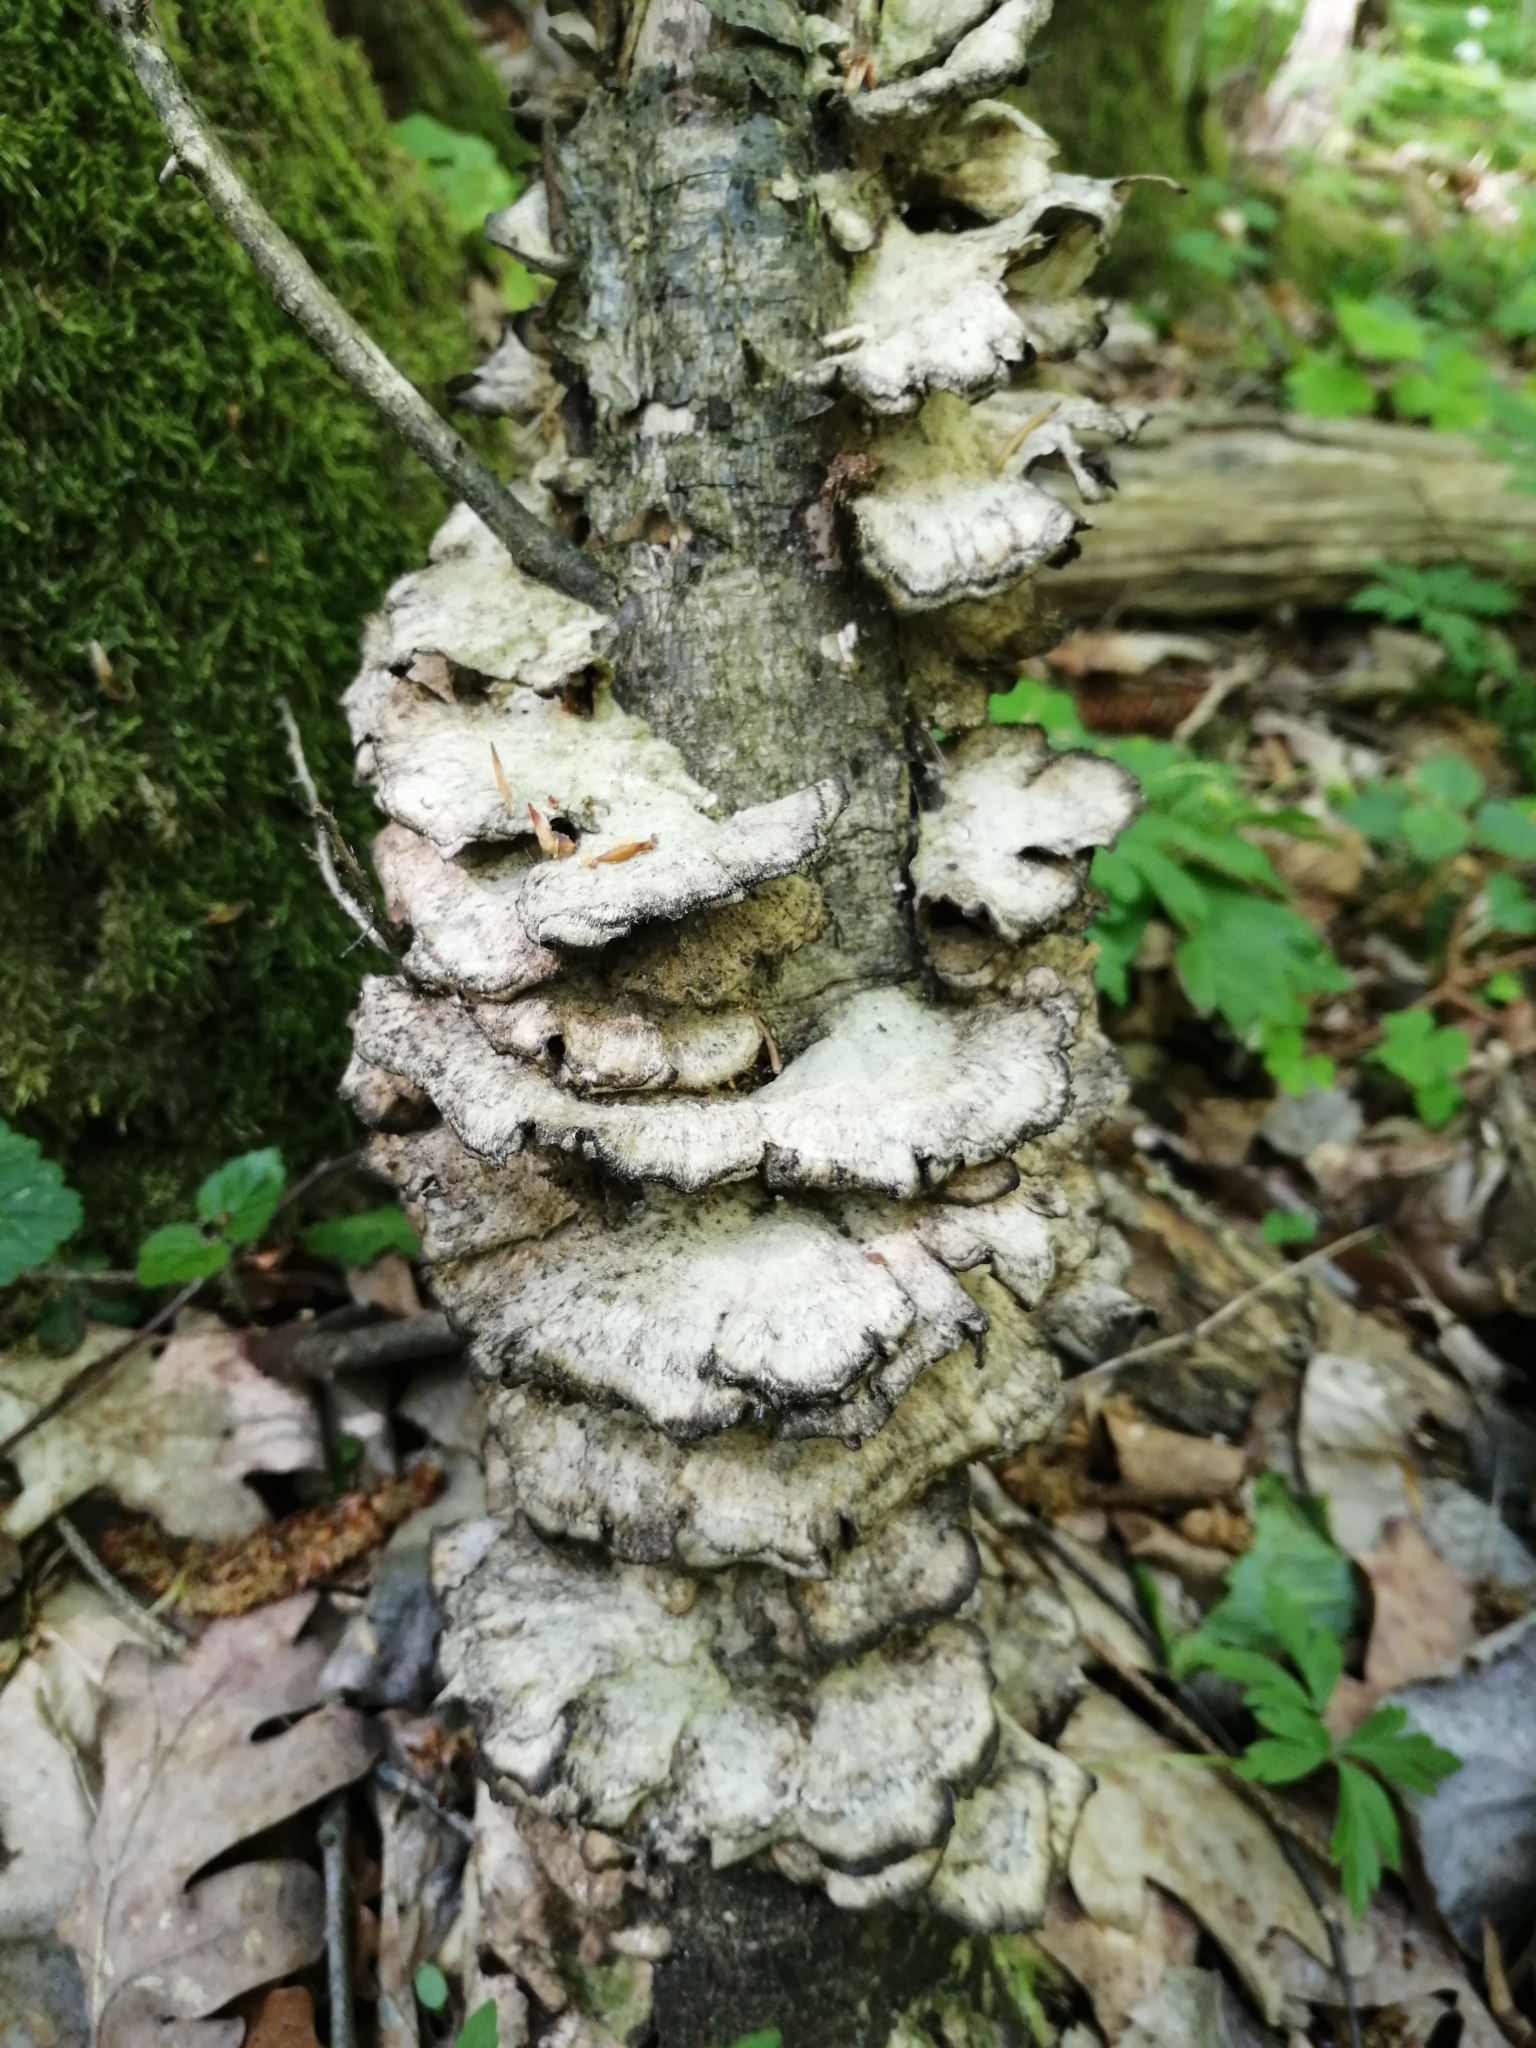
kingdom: Fungi
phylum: Basidiomycota
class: Agaricomycetes
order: Polyporales
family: Phanerochaetaceae
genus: Bjerkandera
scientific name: Bjerkandera adusta
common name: Smoky bracket
